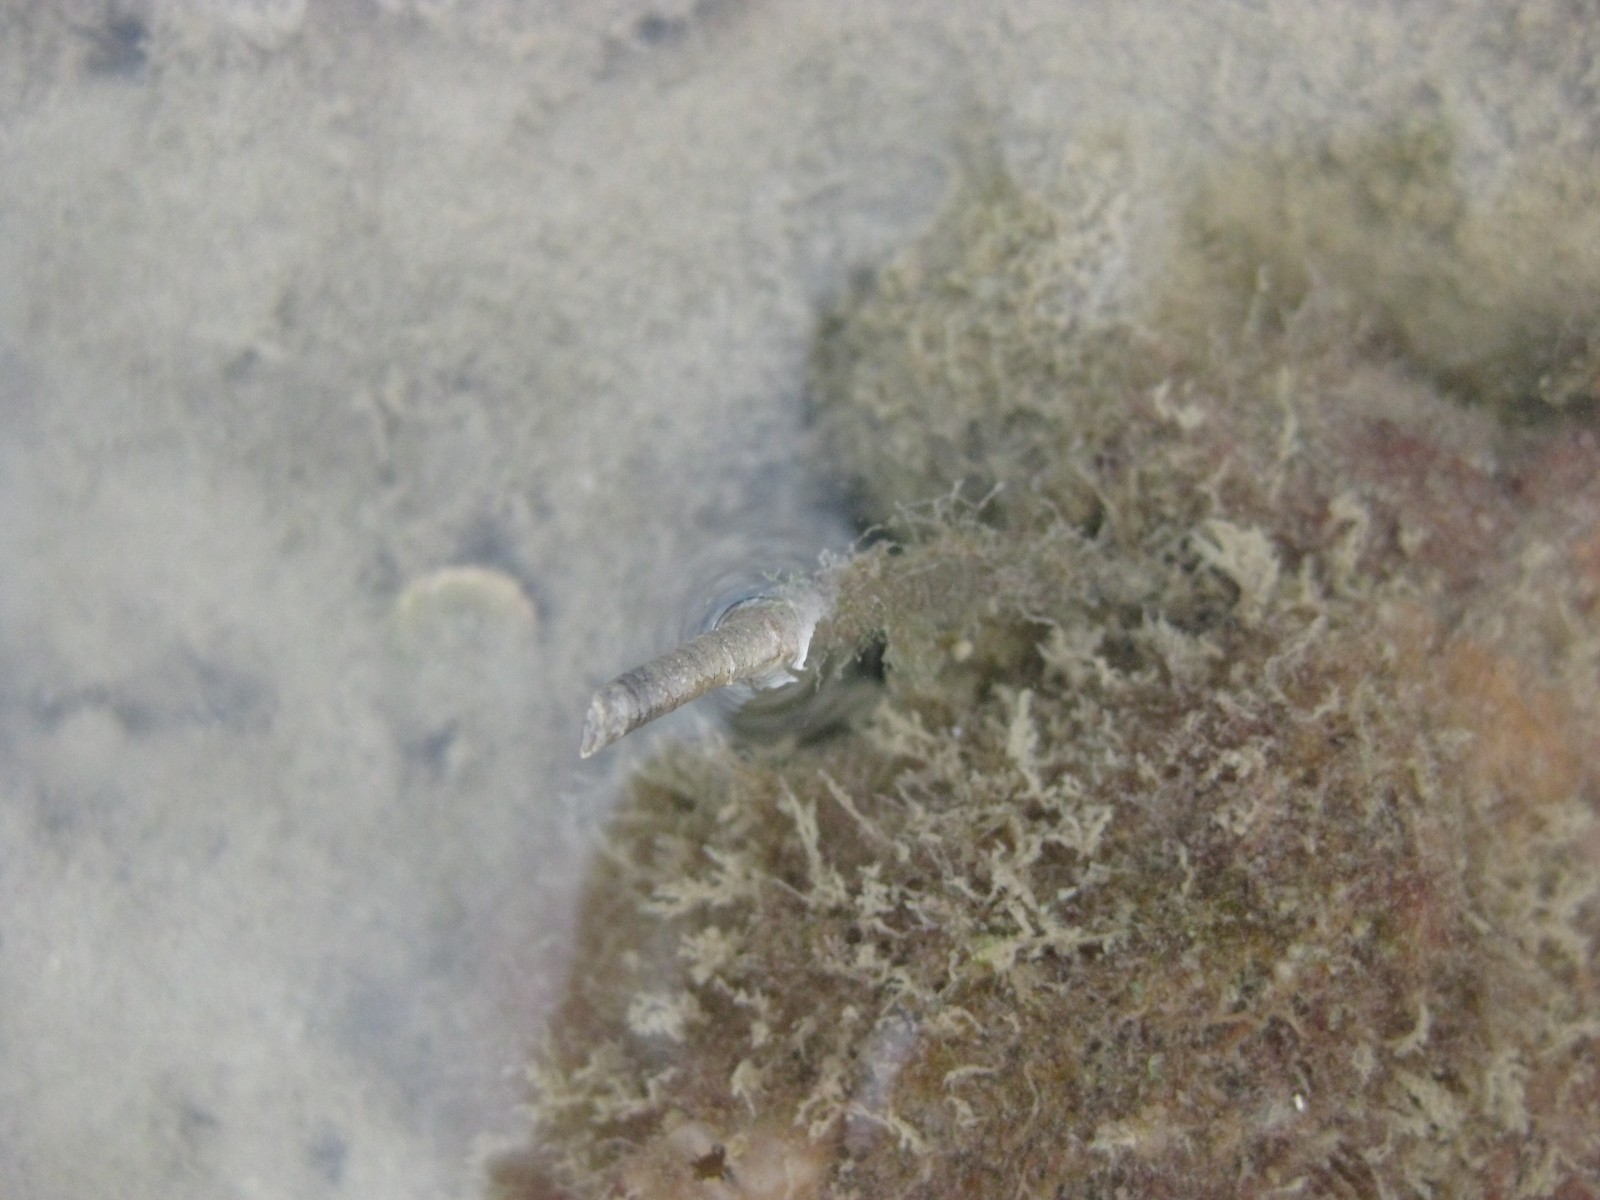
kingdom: Animalia
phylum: Annelida
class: Polychaeta
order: Sabellida
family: Sabellidae
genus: Sabella
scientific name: Sabella spallanzanii
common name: Feather duster worm
